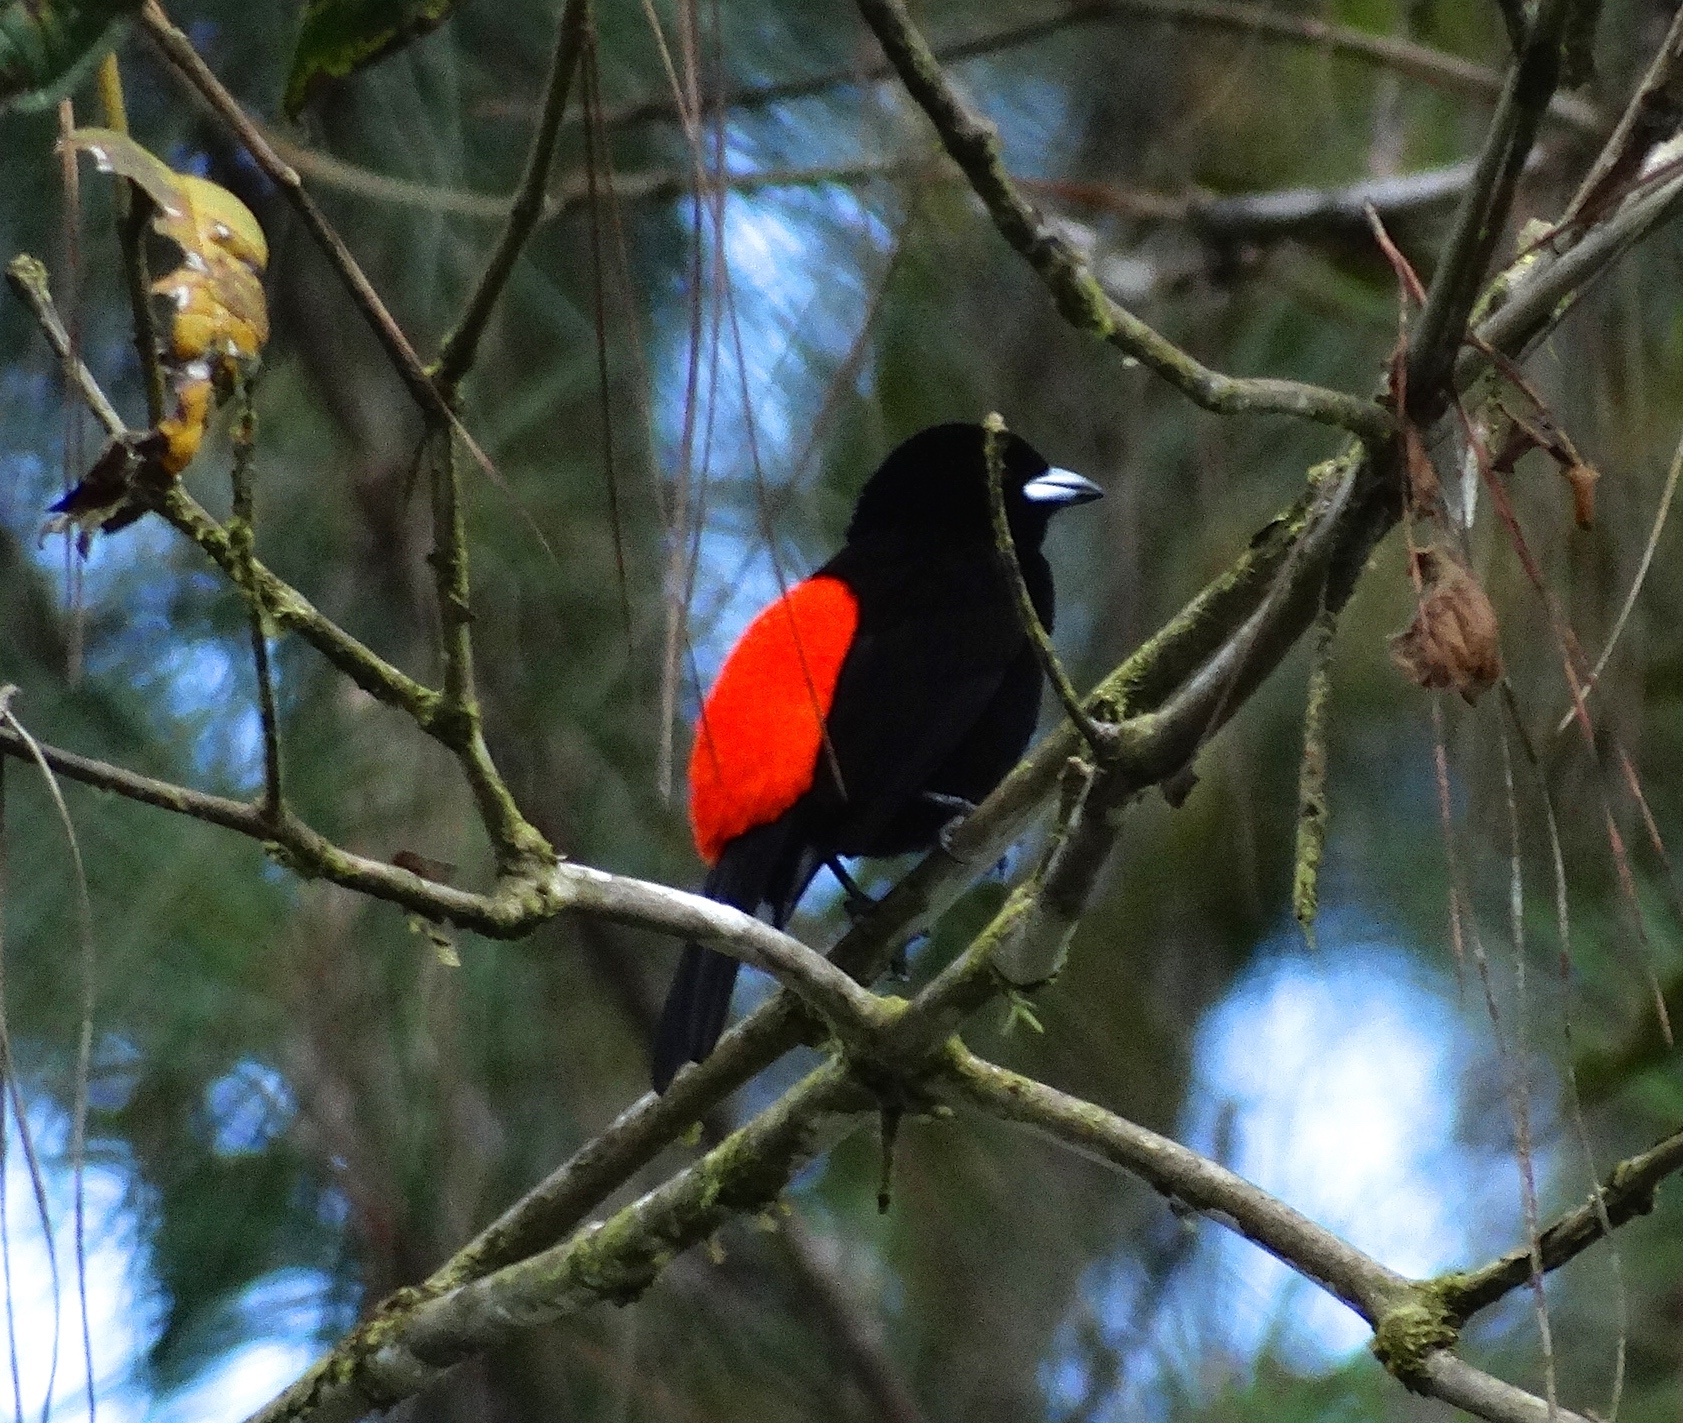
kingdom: Animalia
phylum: Chordata
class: Aves
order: Passeriformes
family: Thraupidae
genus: Ramphocelus
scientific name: Ramphocelus passerinii
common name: Passerini's tanager
